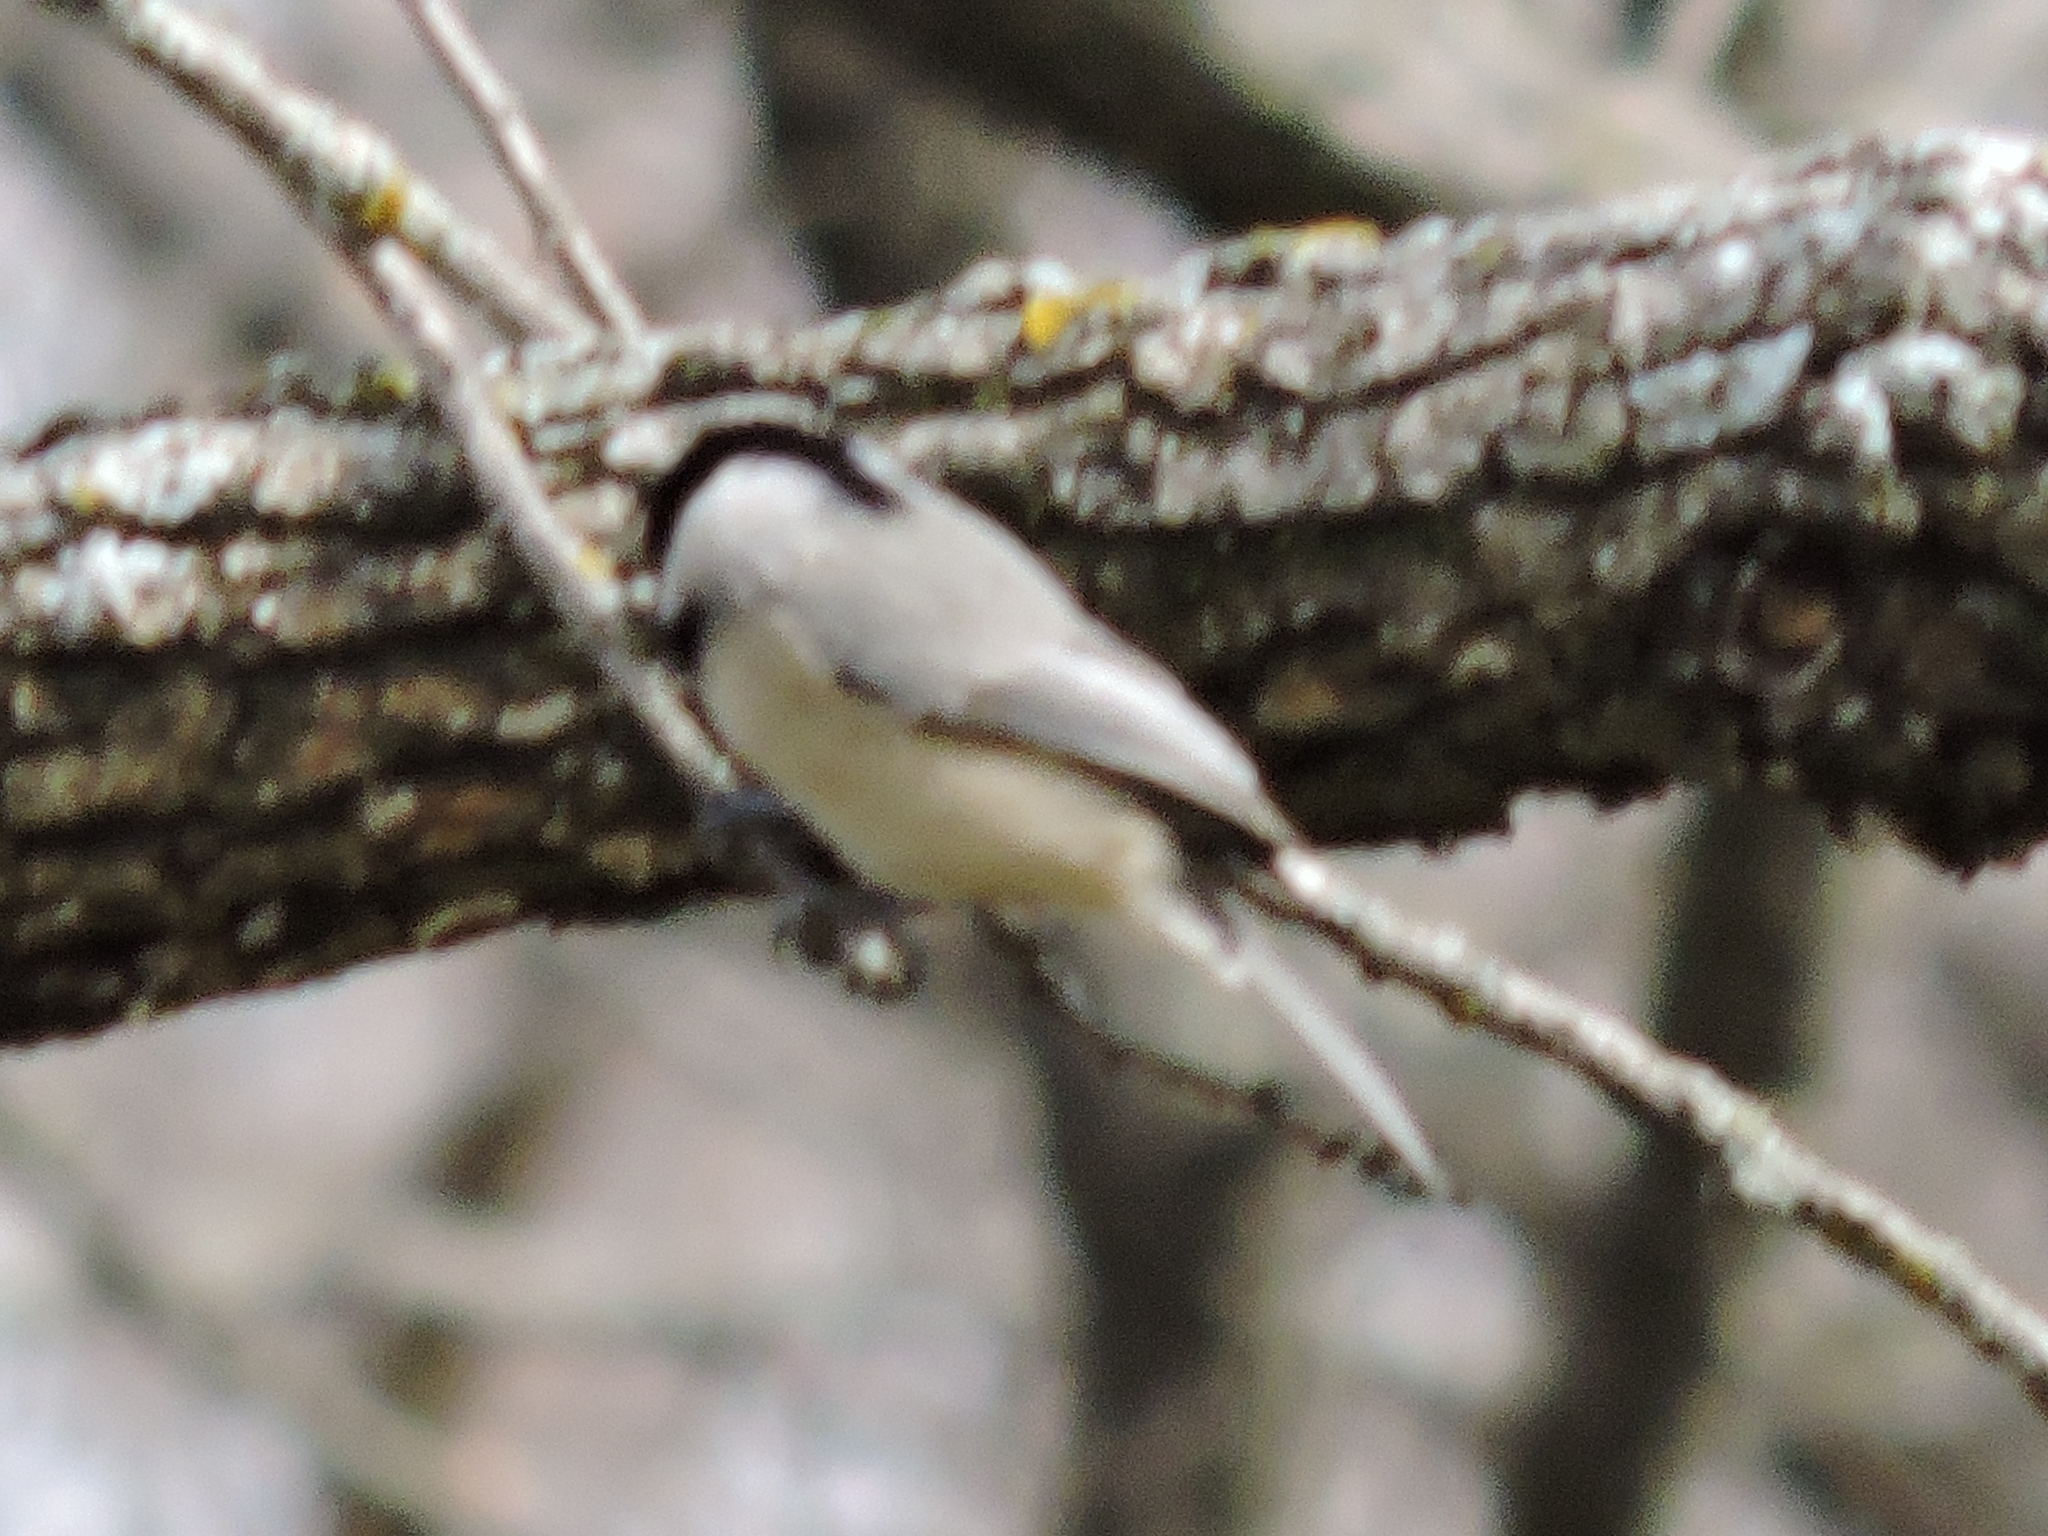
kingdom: Animalia
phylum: Chordata
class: Aves
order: Passeriformes
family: Paridae
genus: Poecile
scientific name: Poecile carolinensis
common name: Carolina chickadee
